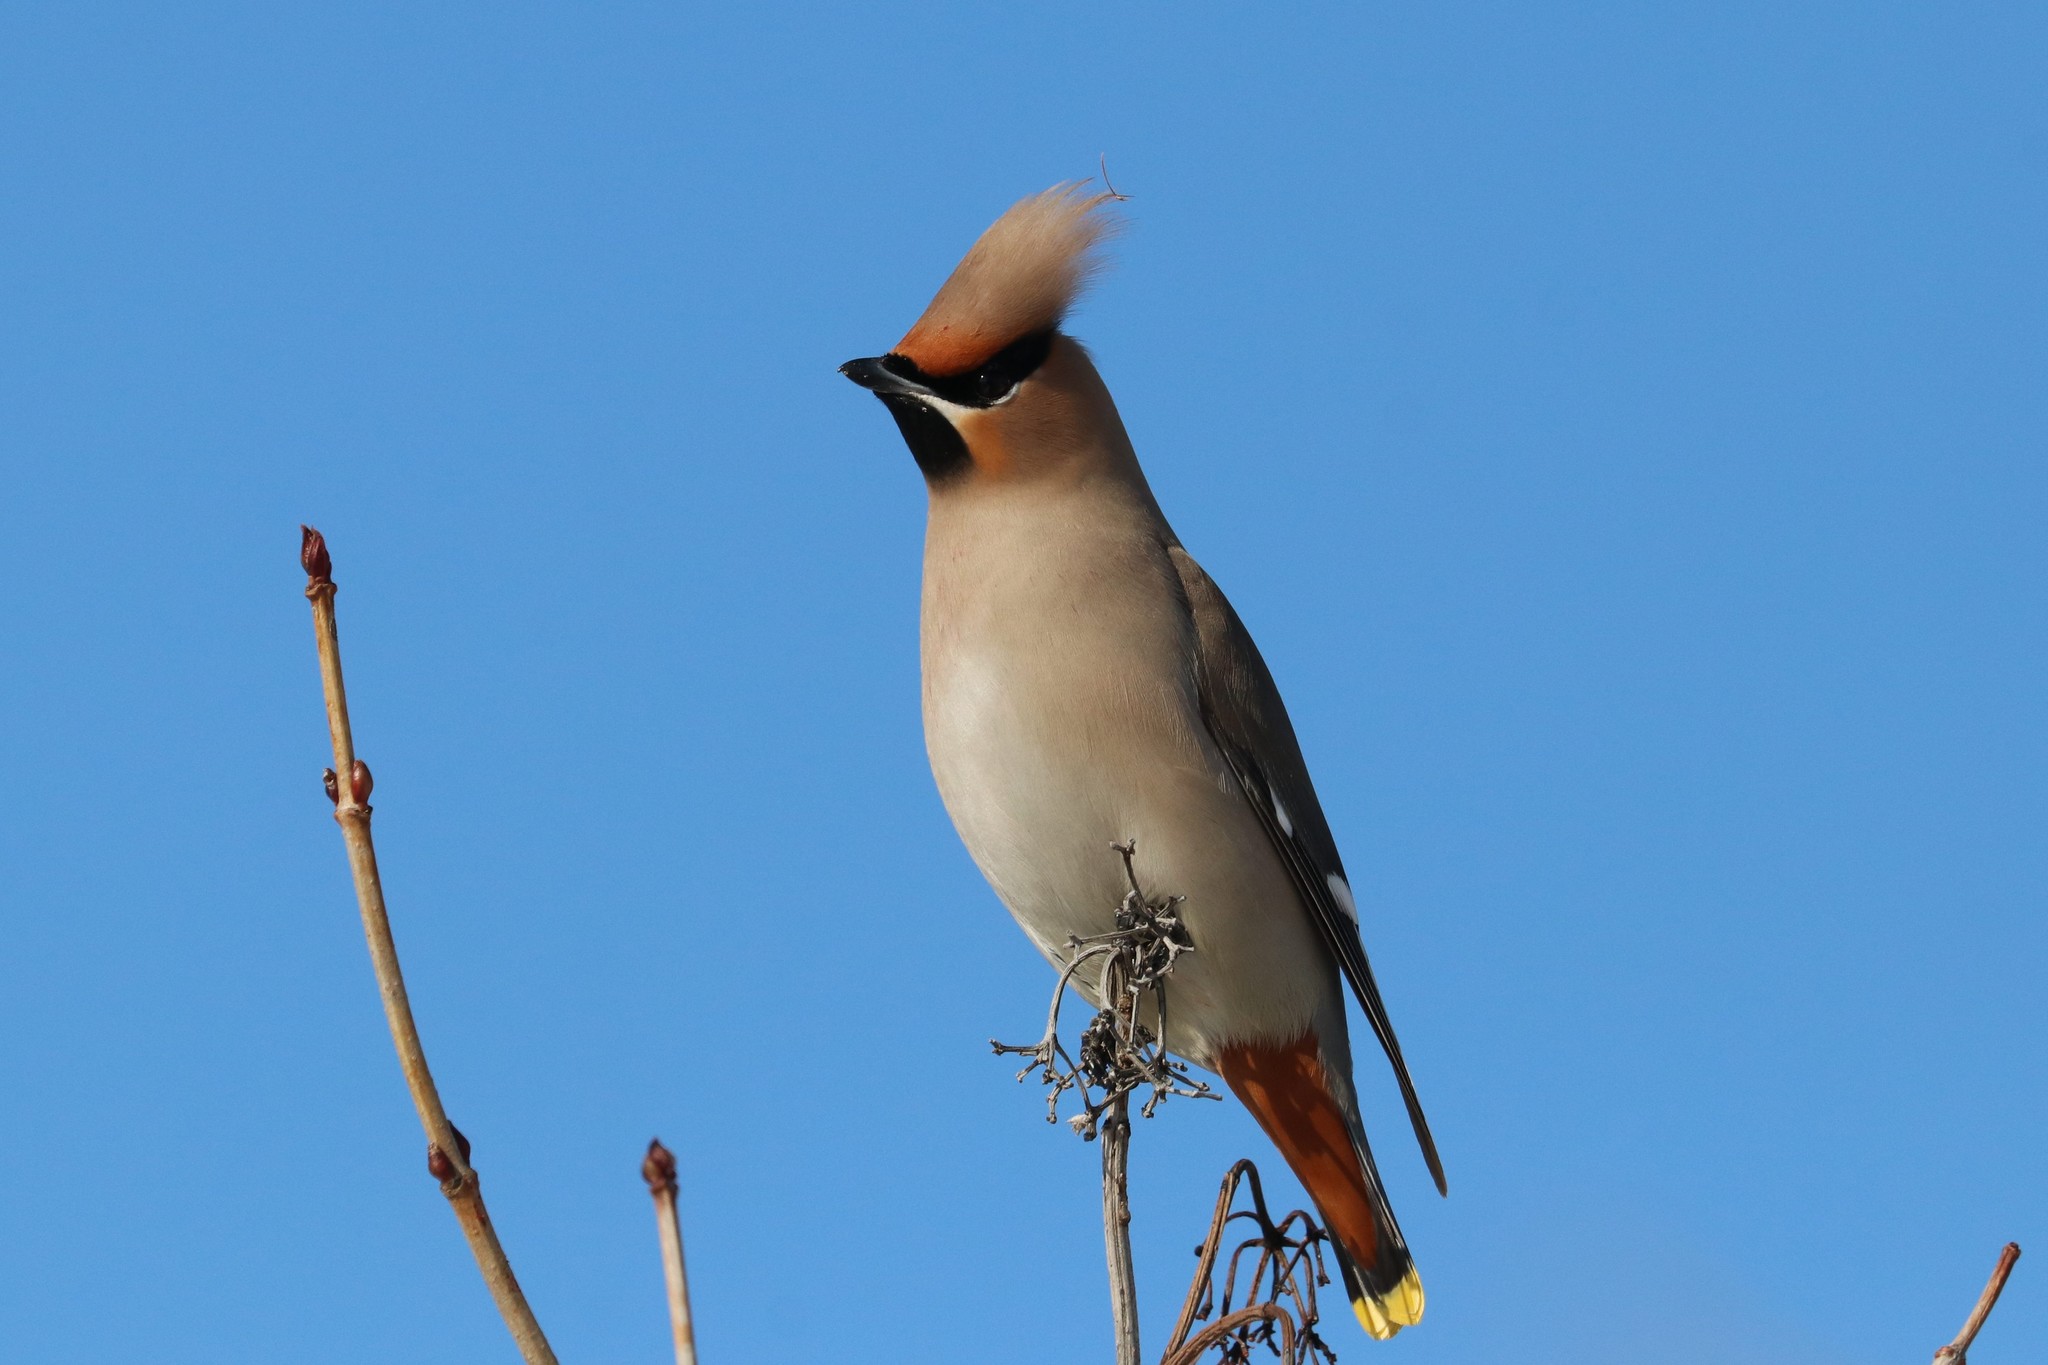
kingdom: Animalia
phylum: Chordata
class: Aves
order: Passeriformes
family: Bombycillidae
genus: Bombycilla
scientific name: Bombycilla garrulus
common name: Bohemian waxwing
